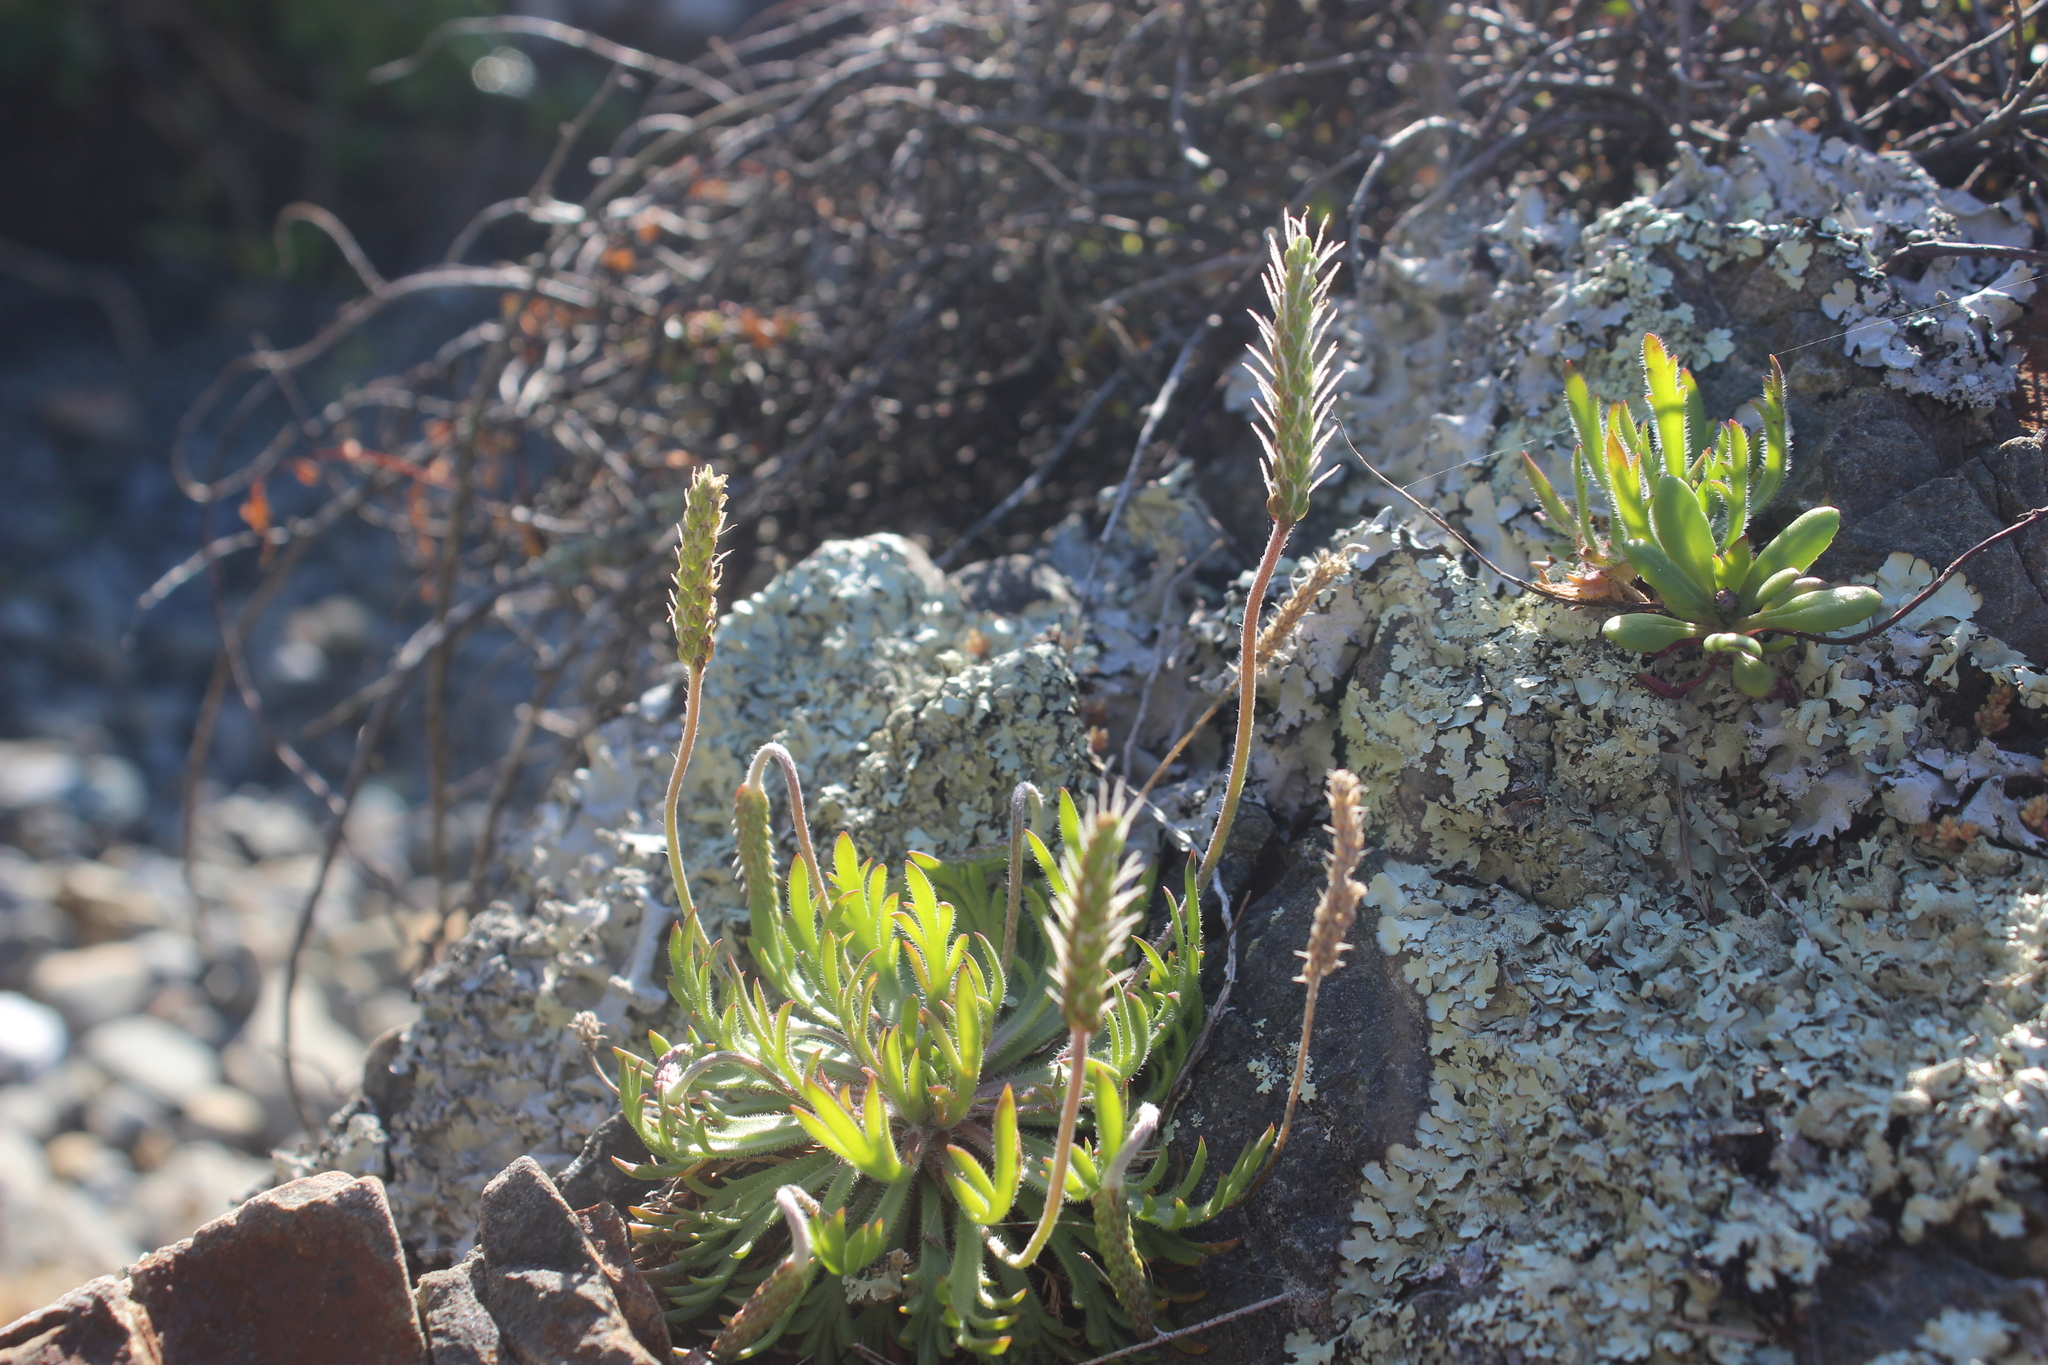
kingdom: Plantae
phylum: Tracheophyta
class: Magnoliopsida
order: Lamiales
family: Plantaginaceae
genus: Plantago
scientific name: Plantago coronopus
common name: Buck's-horn plantain
